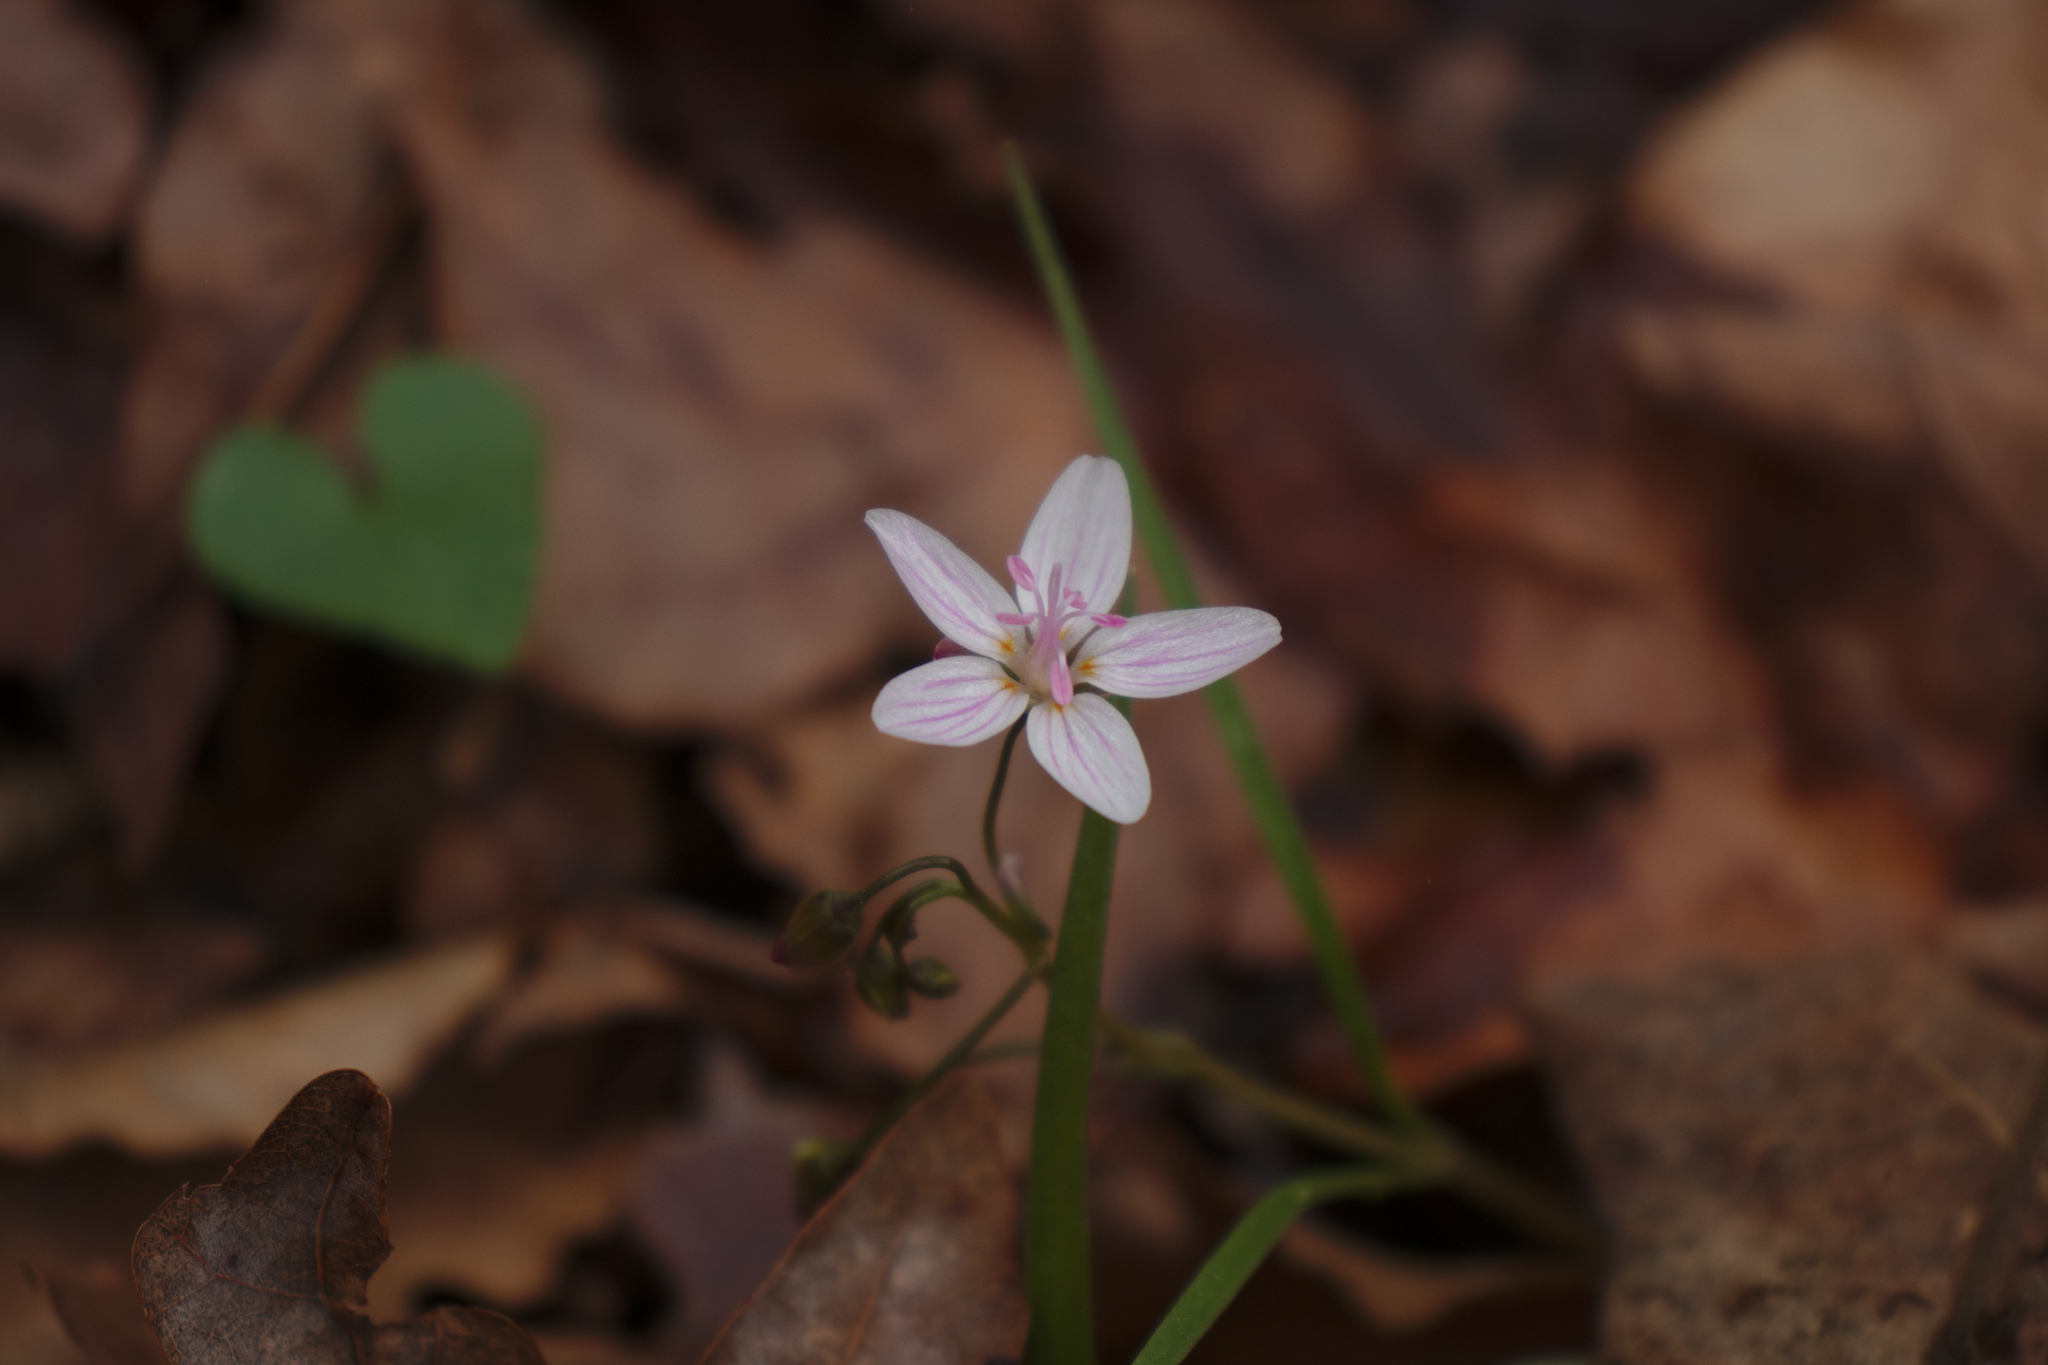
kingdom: Plantae
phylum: Tracheophyta
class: Magnoliopsida
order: Caryophyllales
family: Montiaceae
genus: Claytonia
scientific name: Claytonia virginica
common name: Virginia springbeauty
